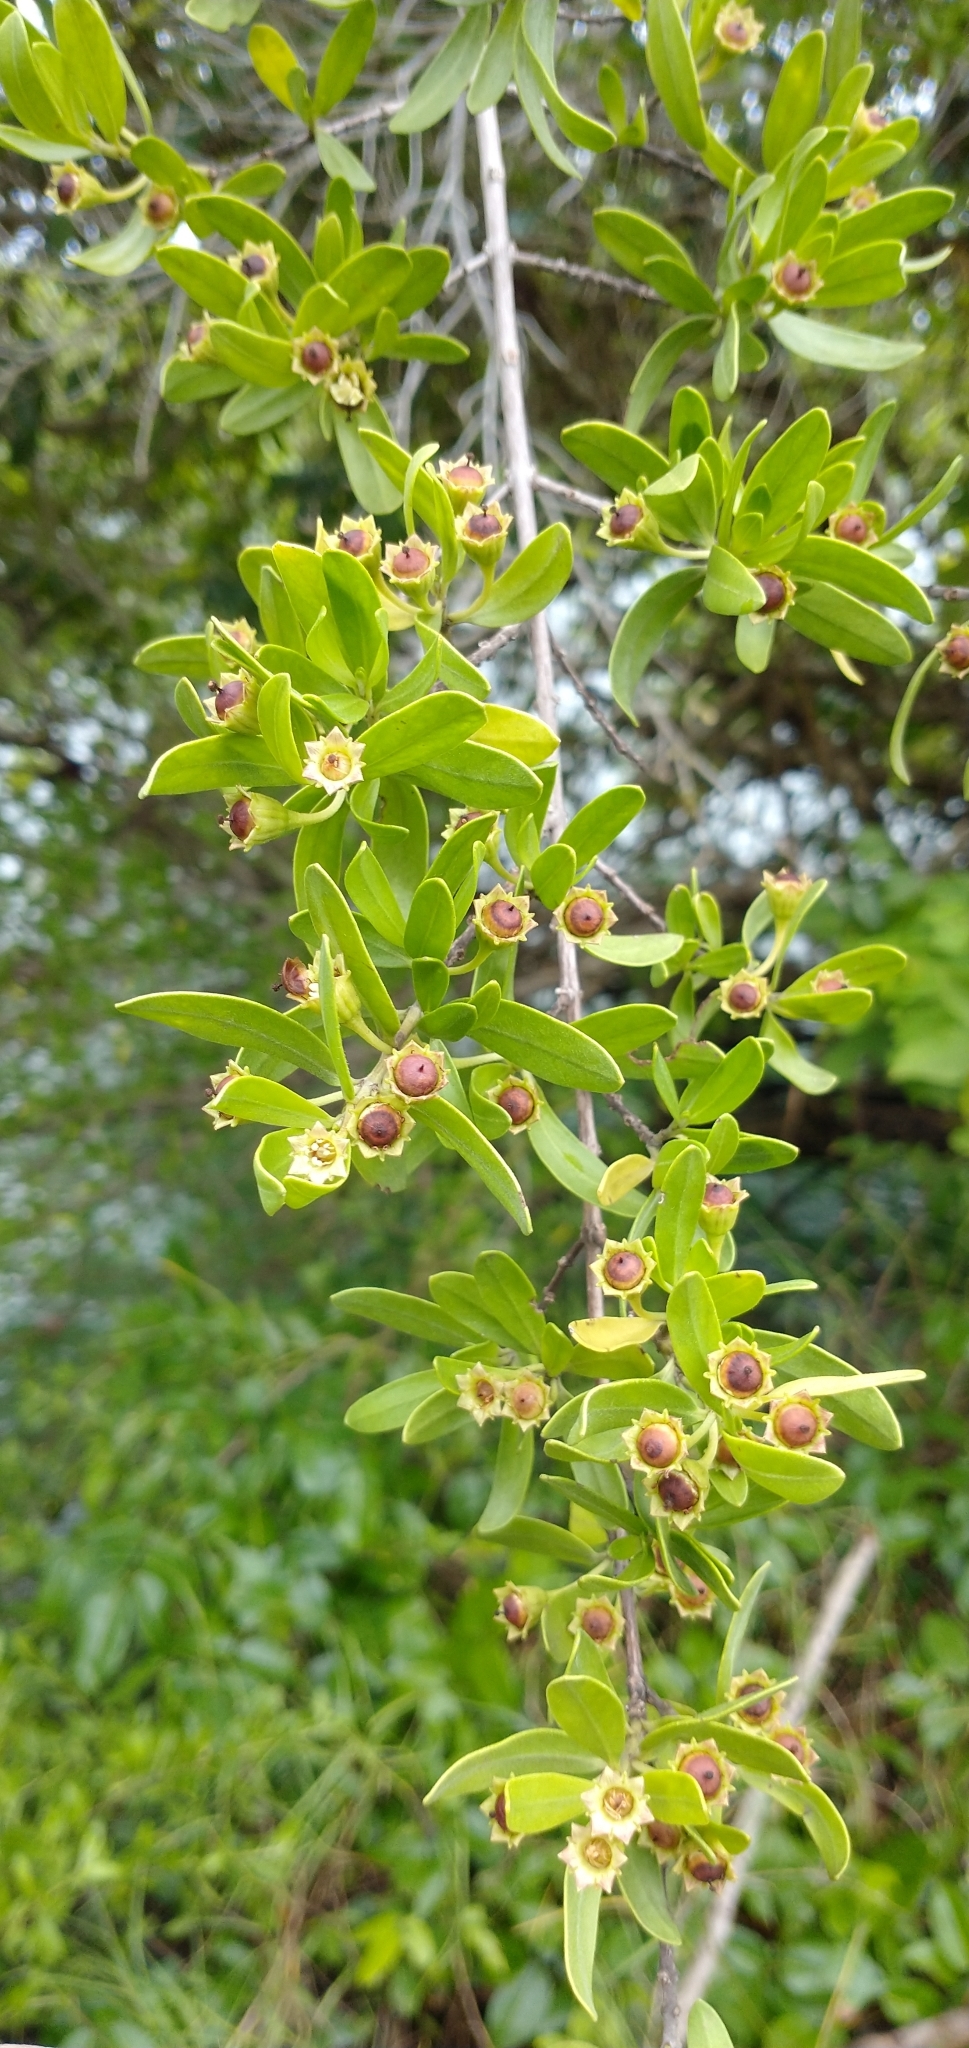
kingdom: Plantae
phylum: Tracheophyta
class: Magnoliopsida
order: Myrtales
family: Lythraceae
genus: Pemphis
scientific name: Pemphis acidula
